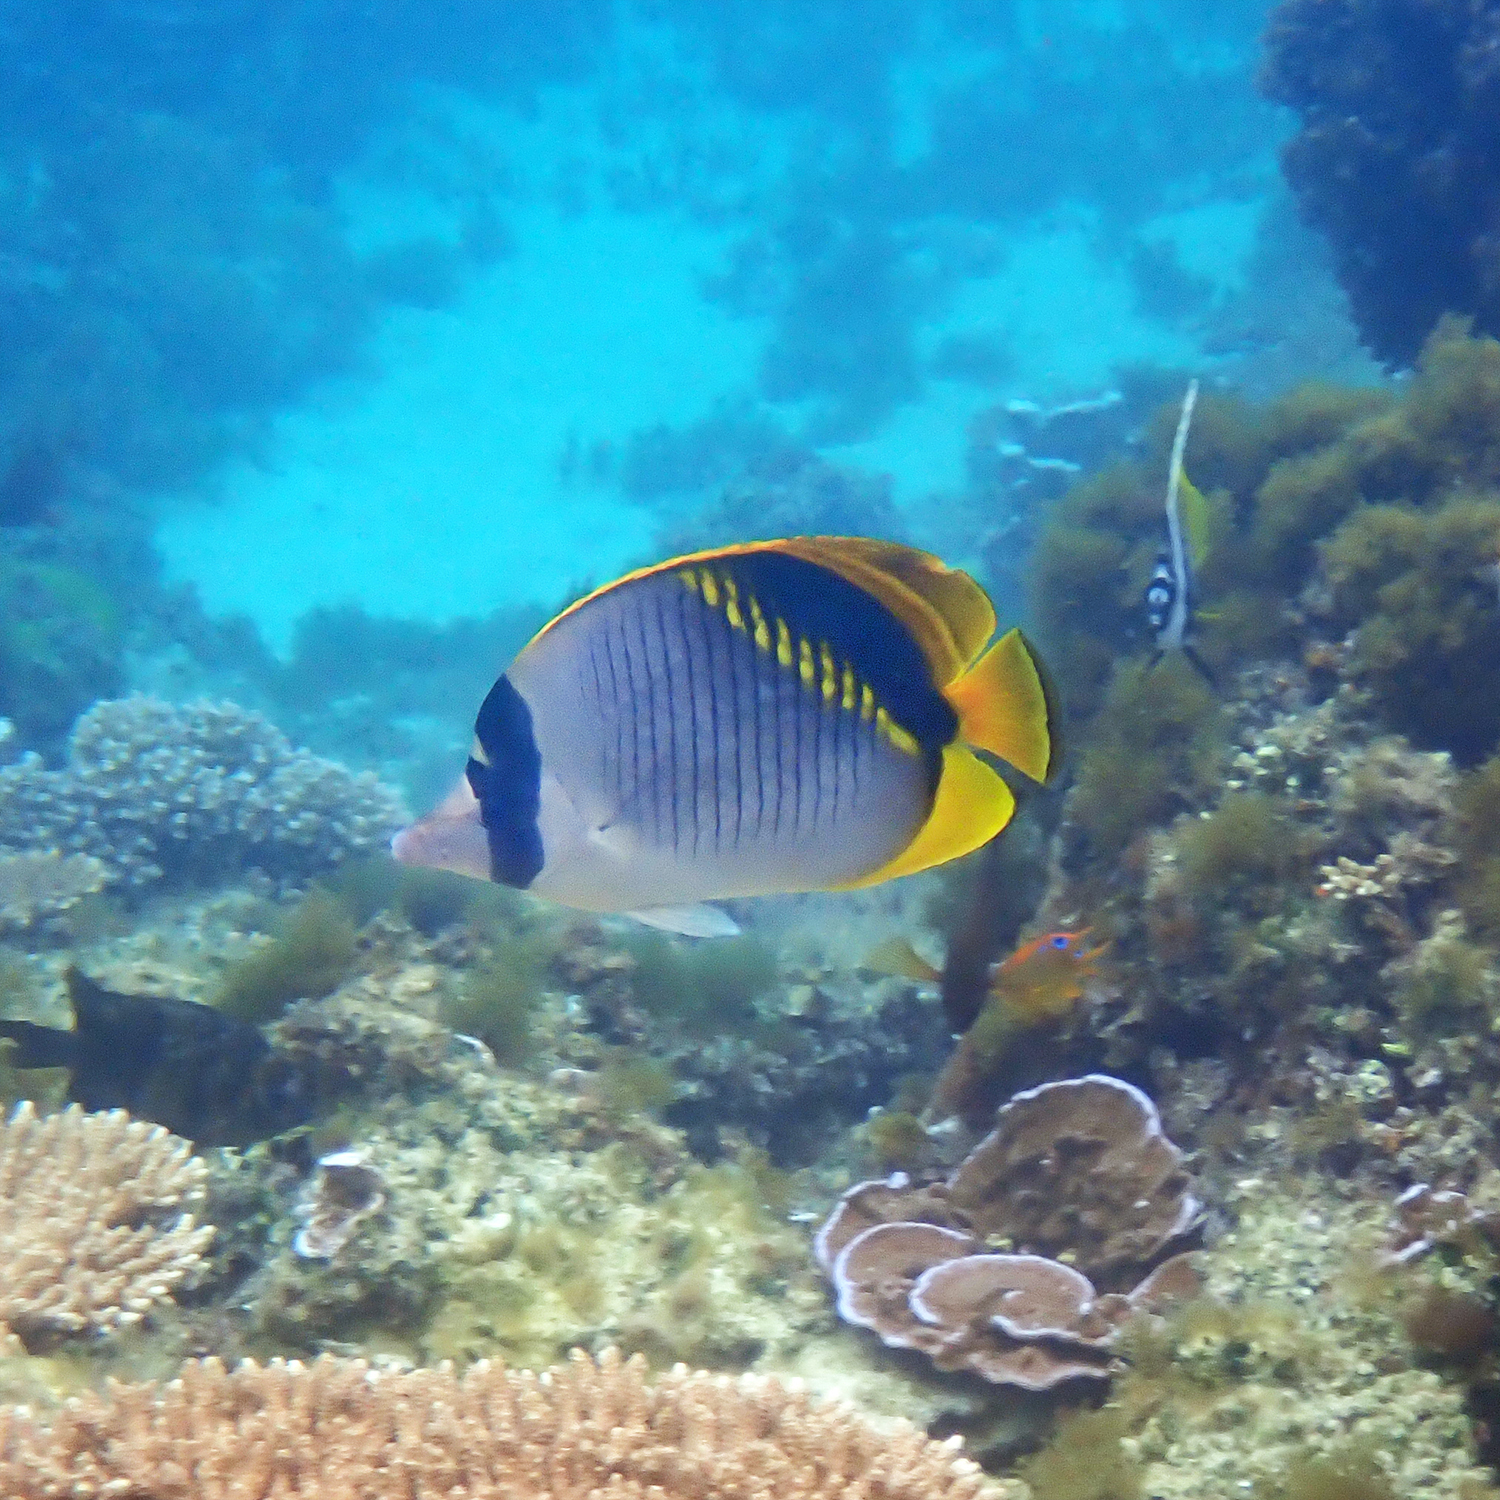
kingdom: Animalia
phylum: Chordata
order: Perciformes
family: Chaetodontidae
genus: Chaetodon
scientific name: Chaetodon lineolatus
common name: Lined butterflyfish
